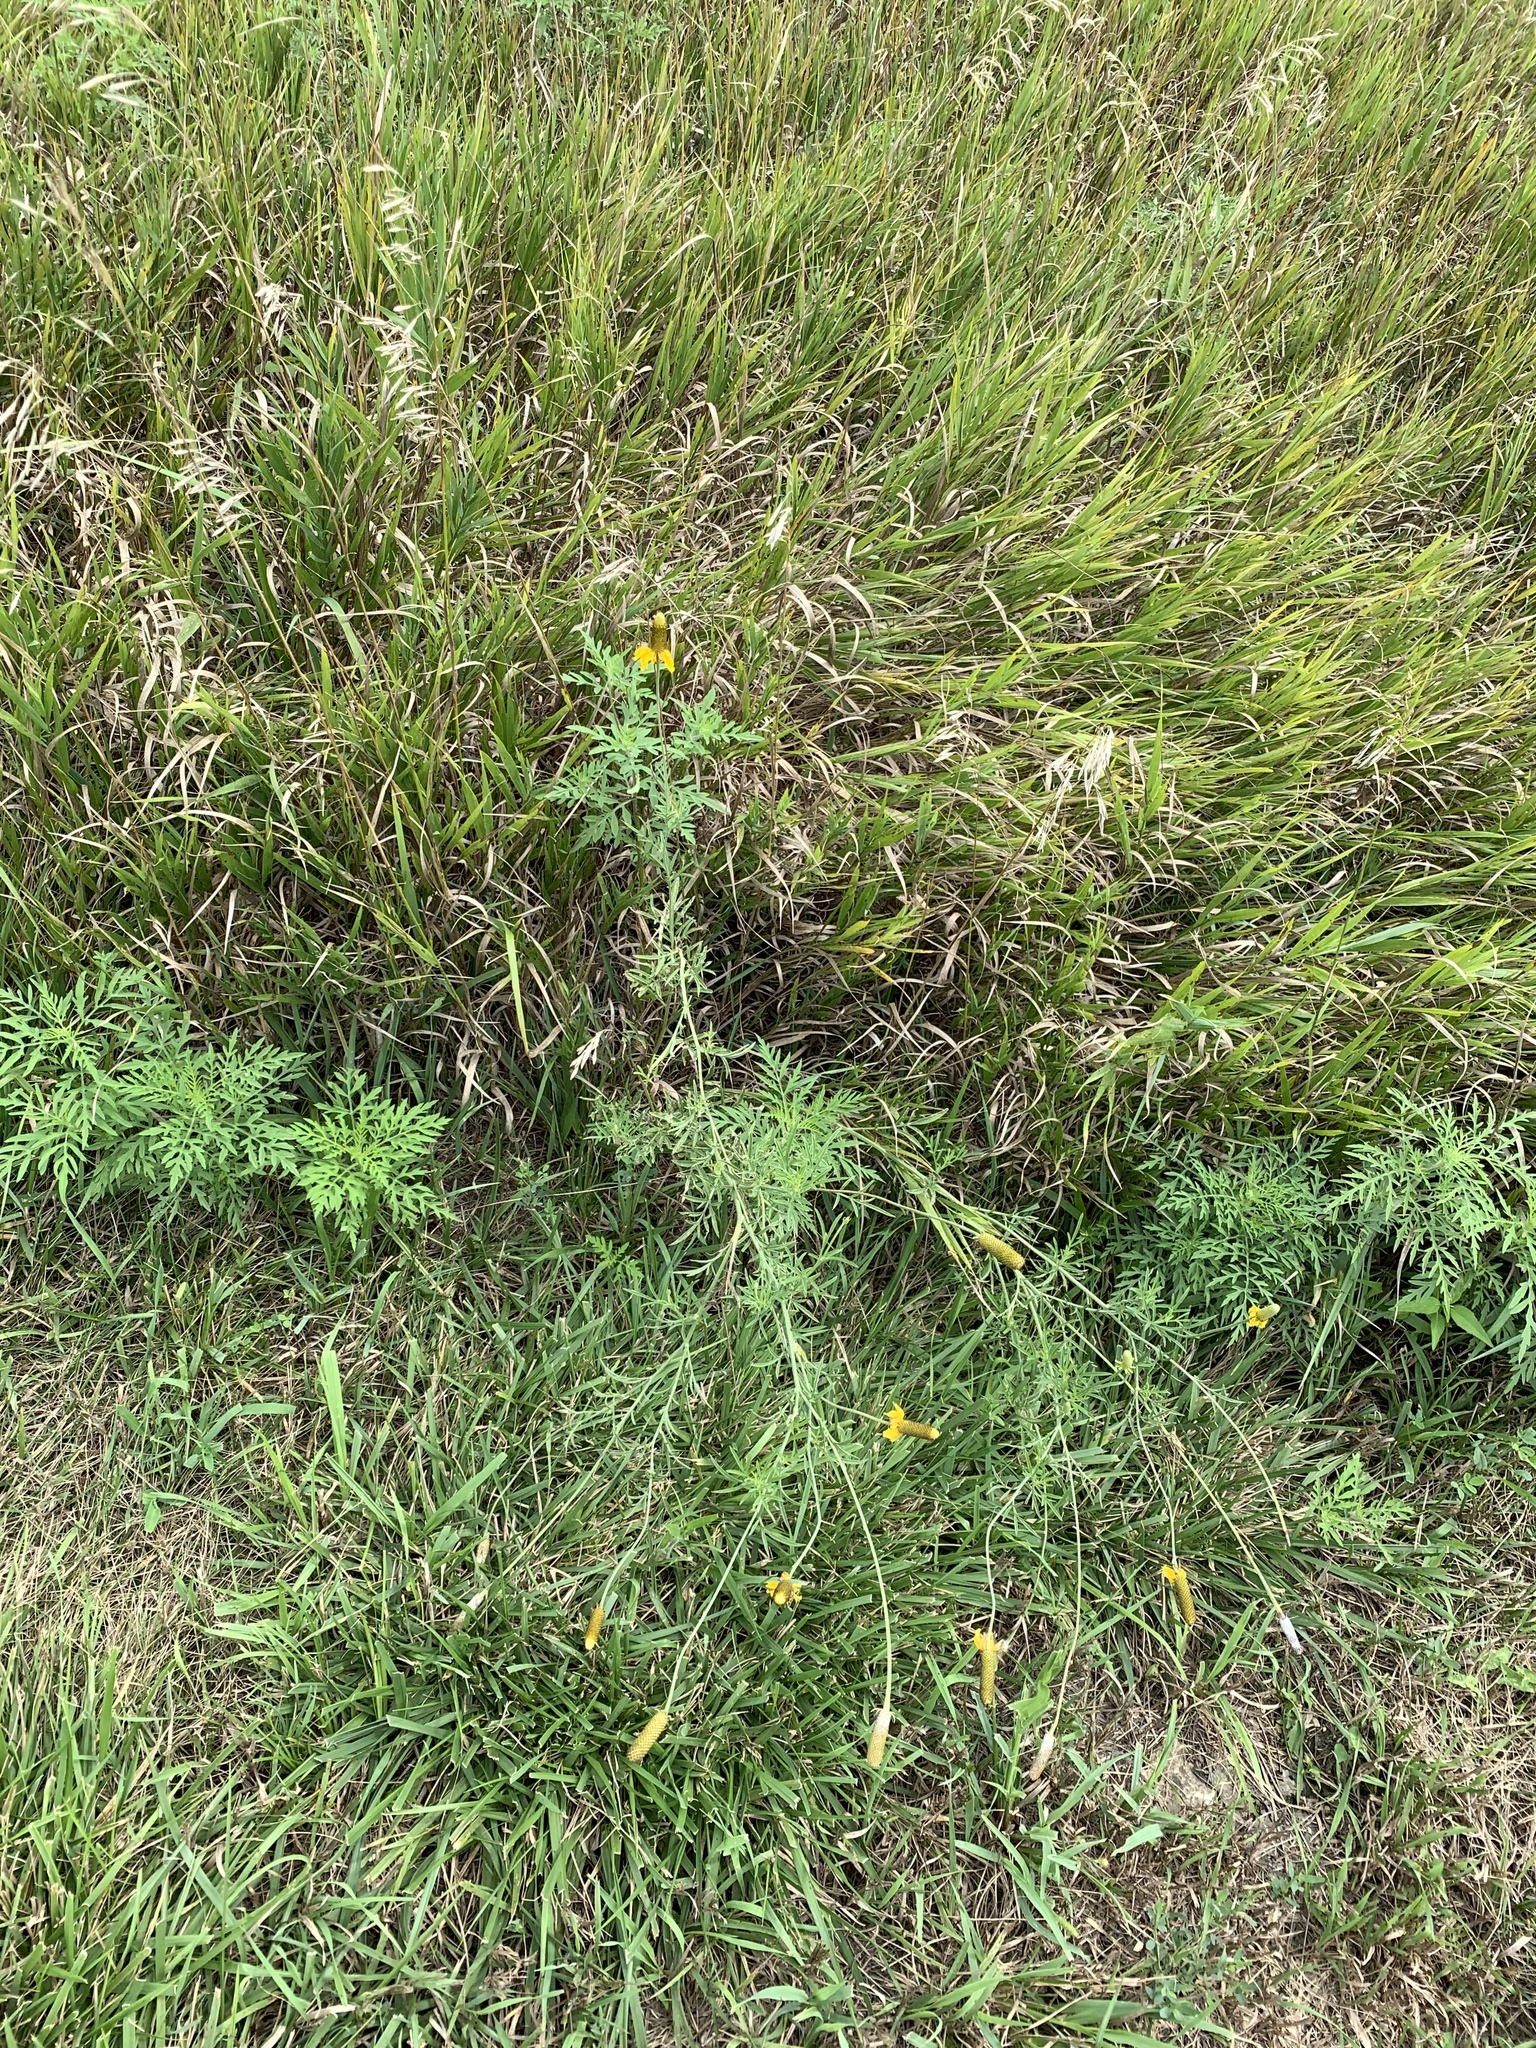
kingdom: Plantae
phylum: Tracheophyta
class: Magnoliopsida
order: Asterales
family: Asteraceae
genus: Ratibida
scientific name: Ratibida columnifera
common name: Prairie coneflower
